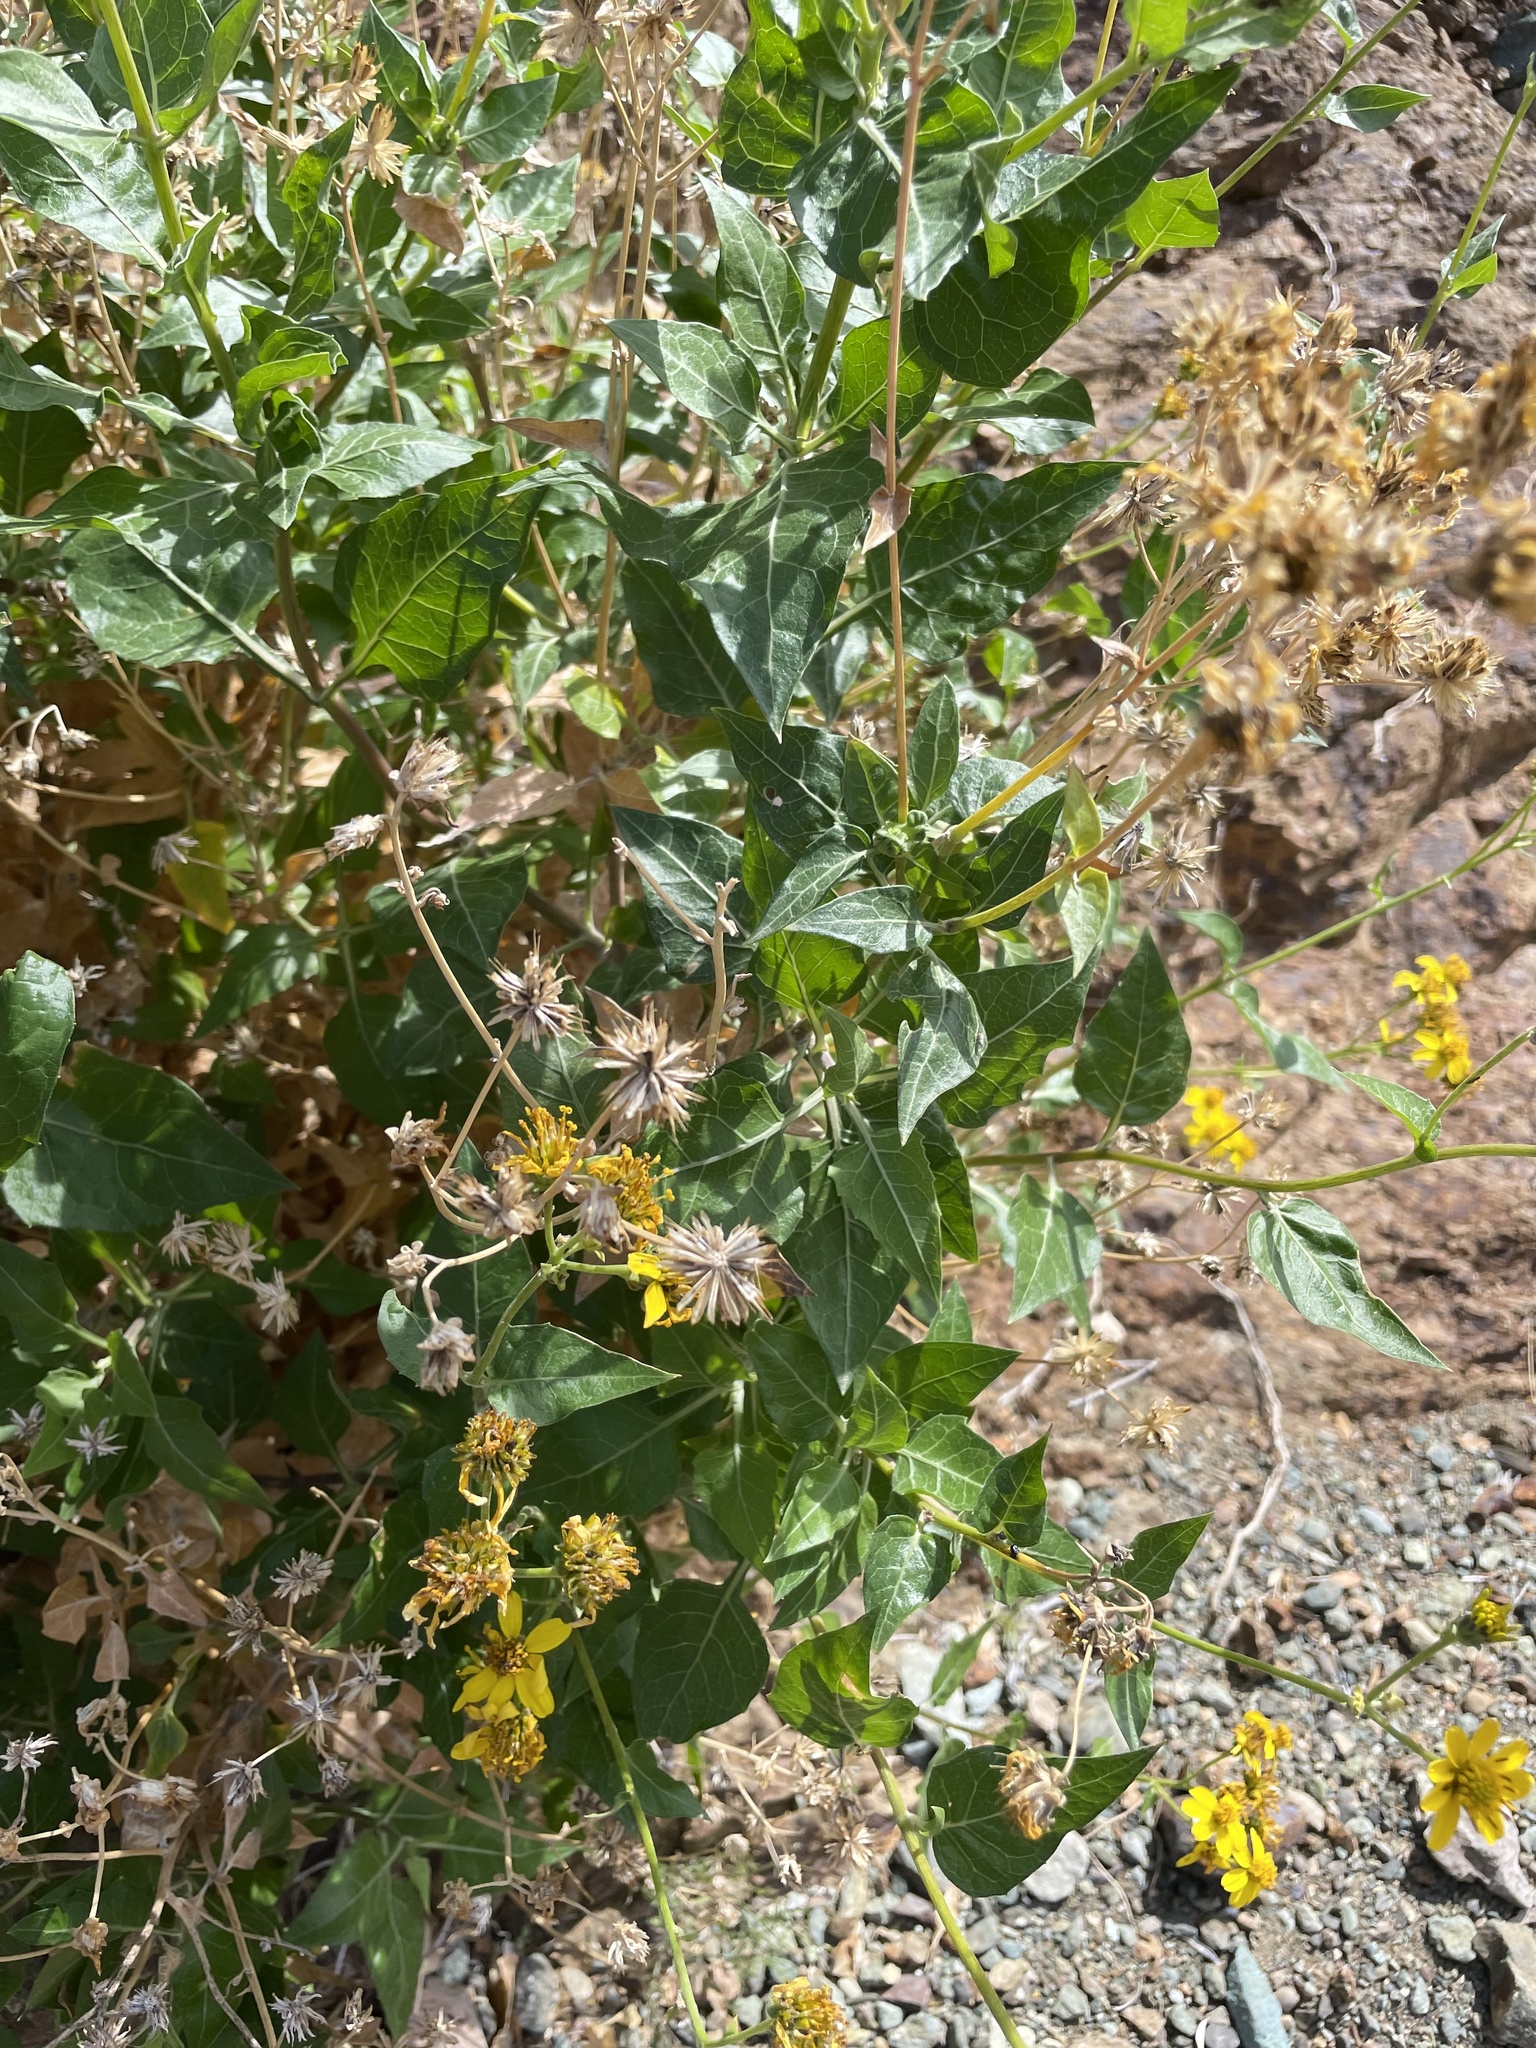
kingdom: Plantae
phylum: Tracheophyta
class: Magnoliopsida
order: Asterales
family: Asteraceae
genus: Verbesina
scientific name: Verbesina hastata
